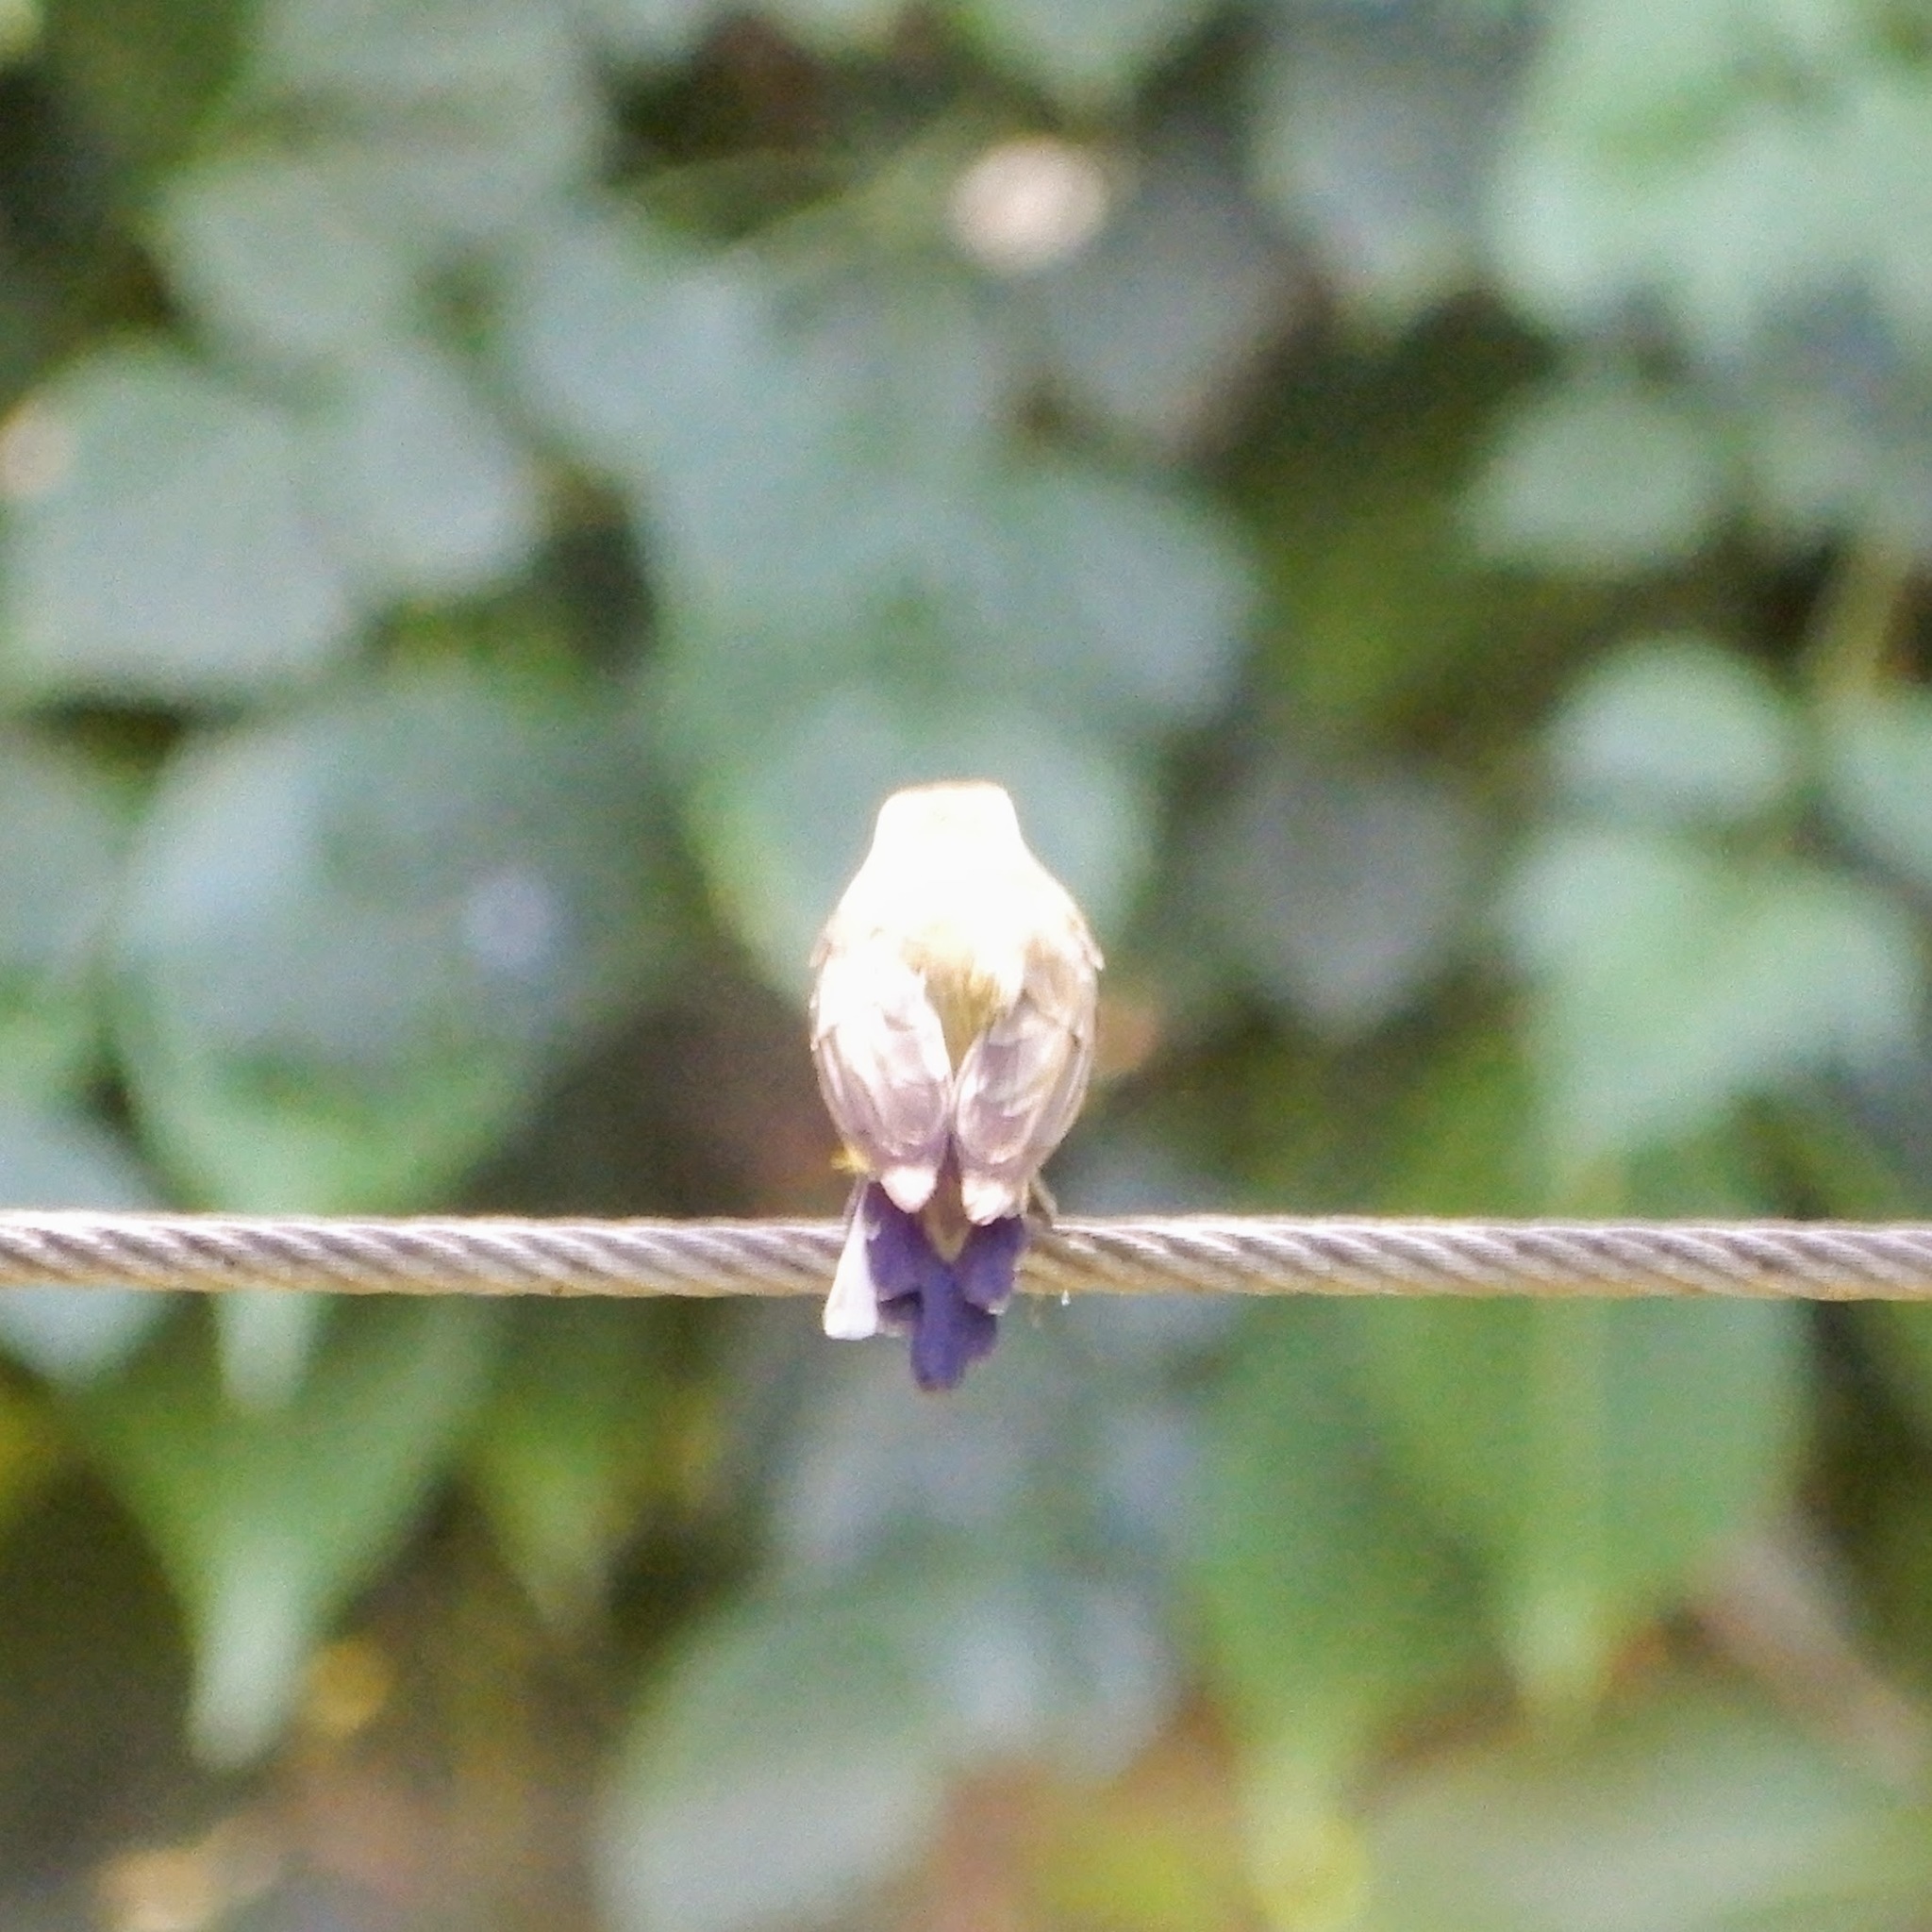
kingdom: Animalia
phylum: Chordata
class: Aves
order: Passeriformes
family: Nectariniidae
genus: Cinnyris
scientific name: Cinnyris
